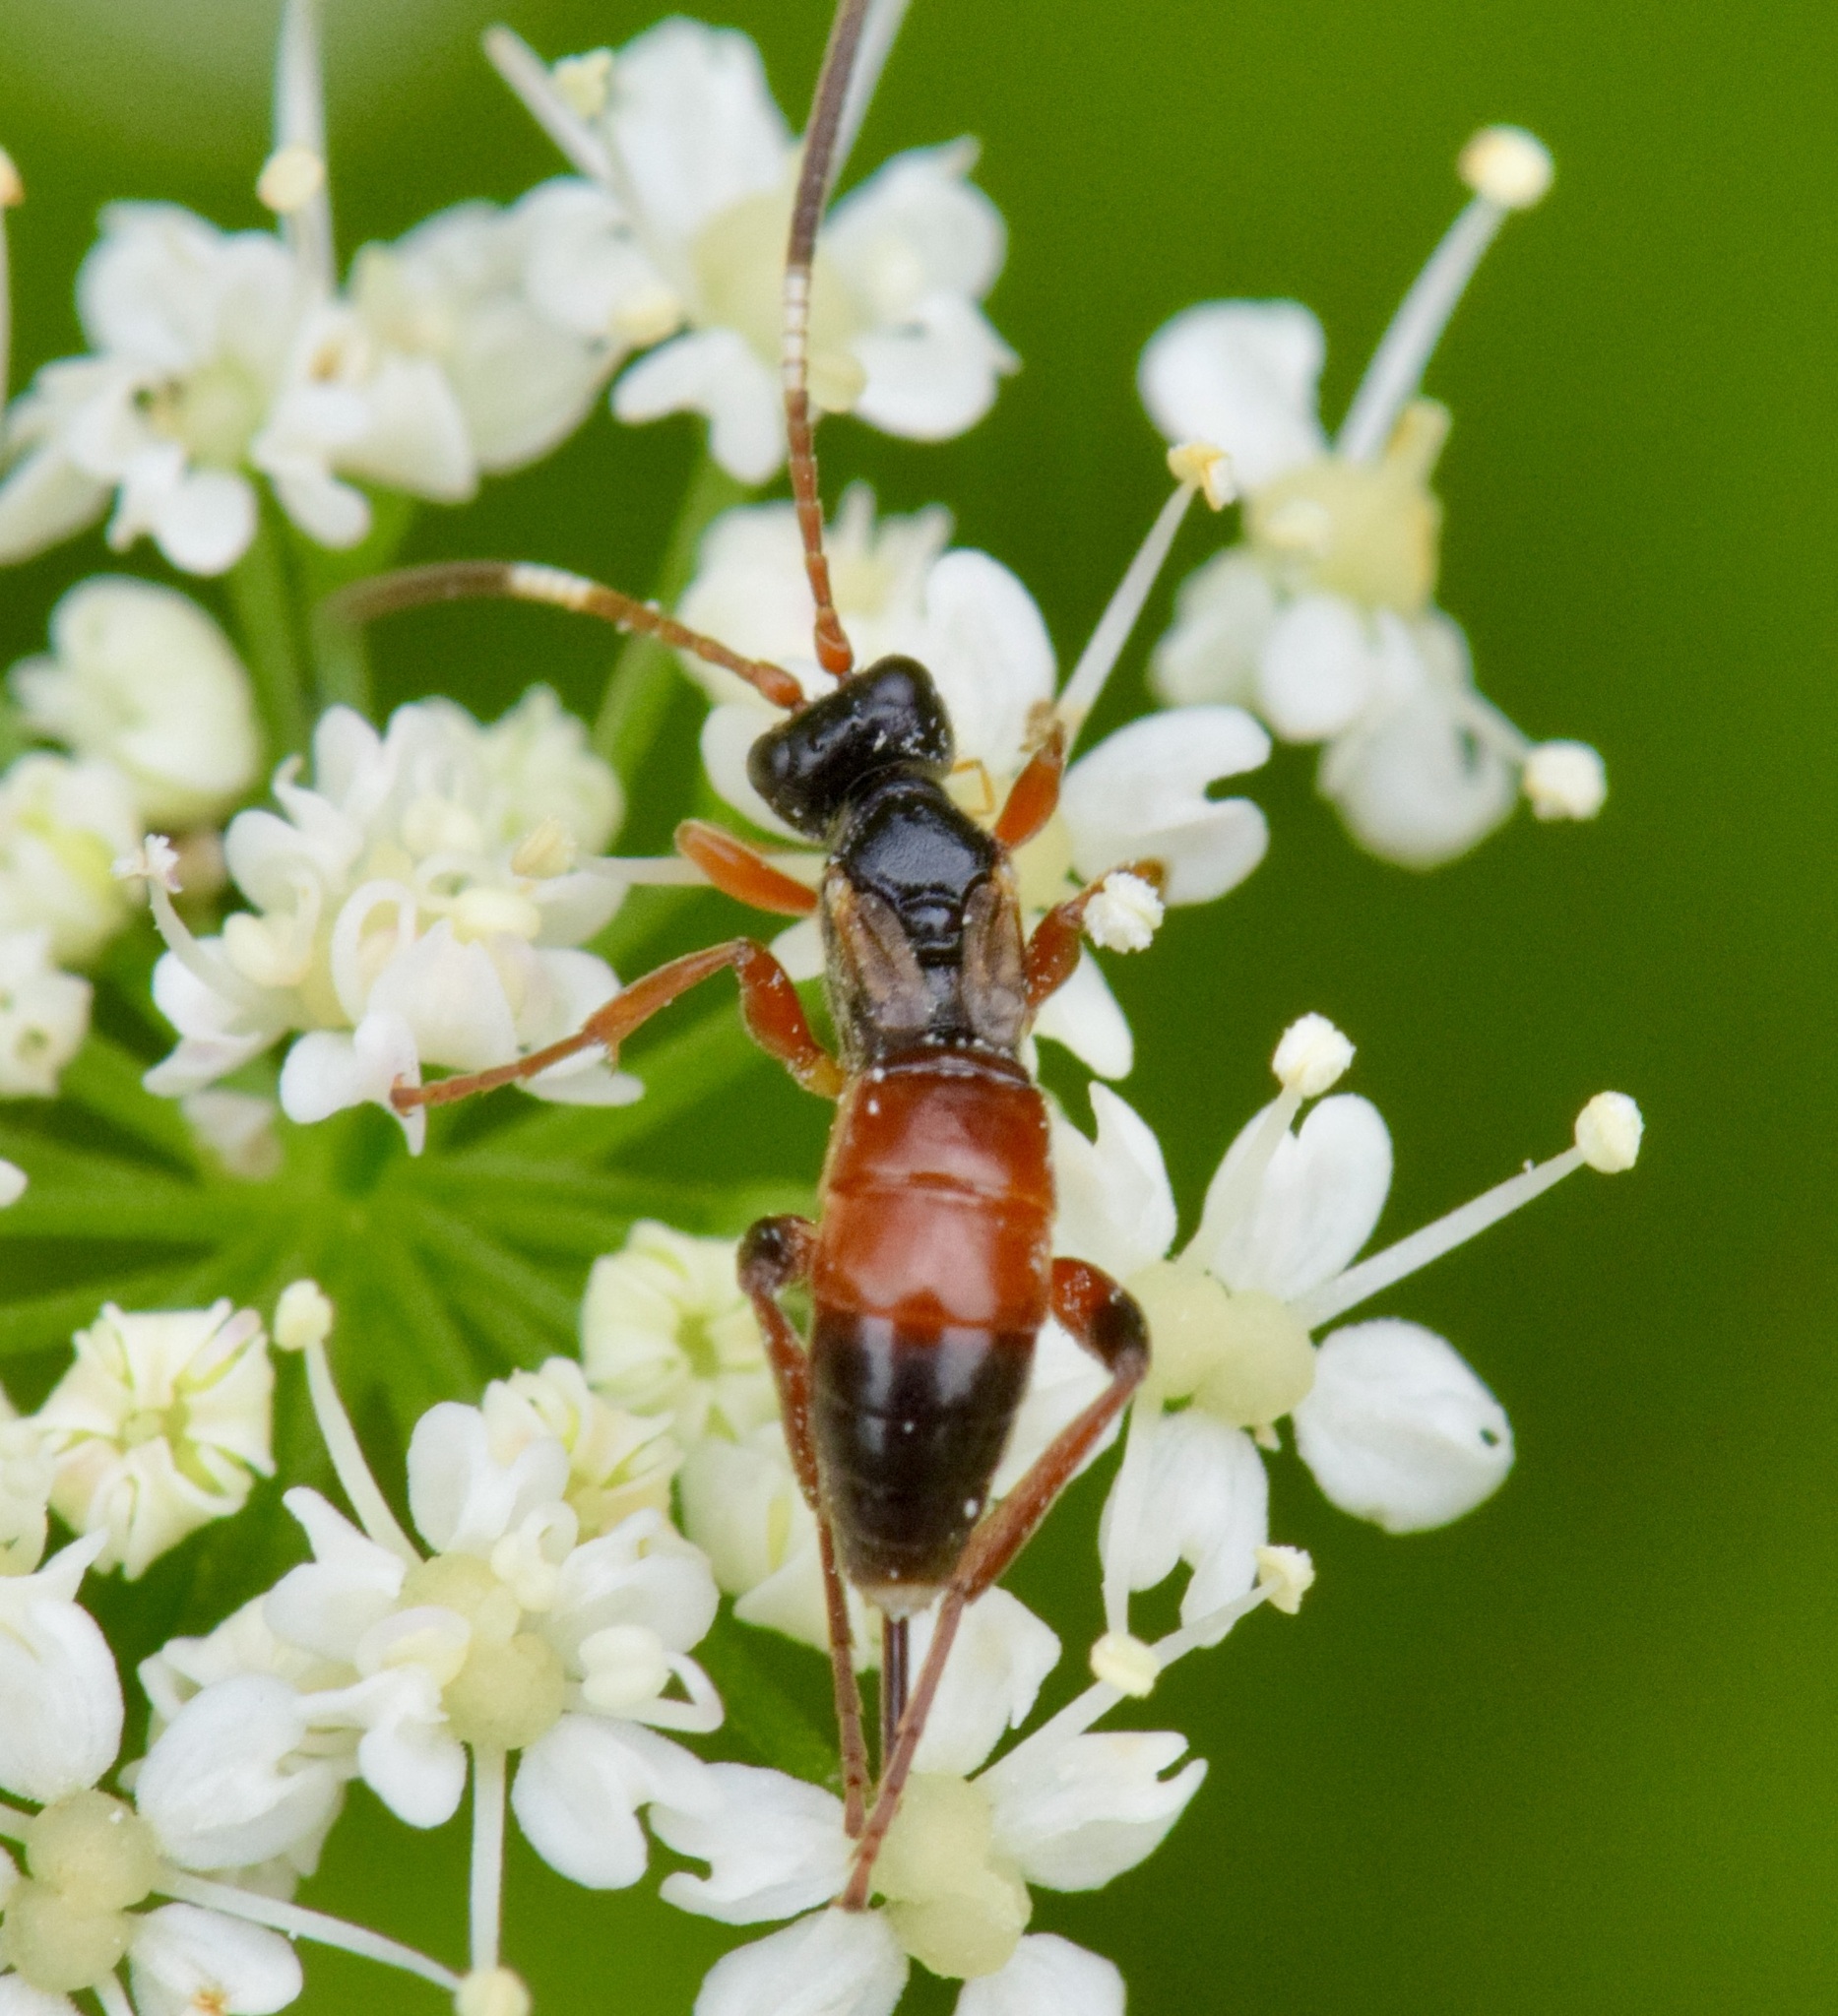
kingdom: Animalia
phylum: Arthropoda
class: Insecta
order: Hymenoptera
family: Ichneumonidae
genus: Pleolophus
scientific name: Pleolophus indistinctus
